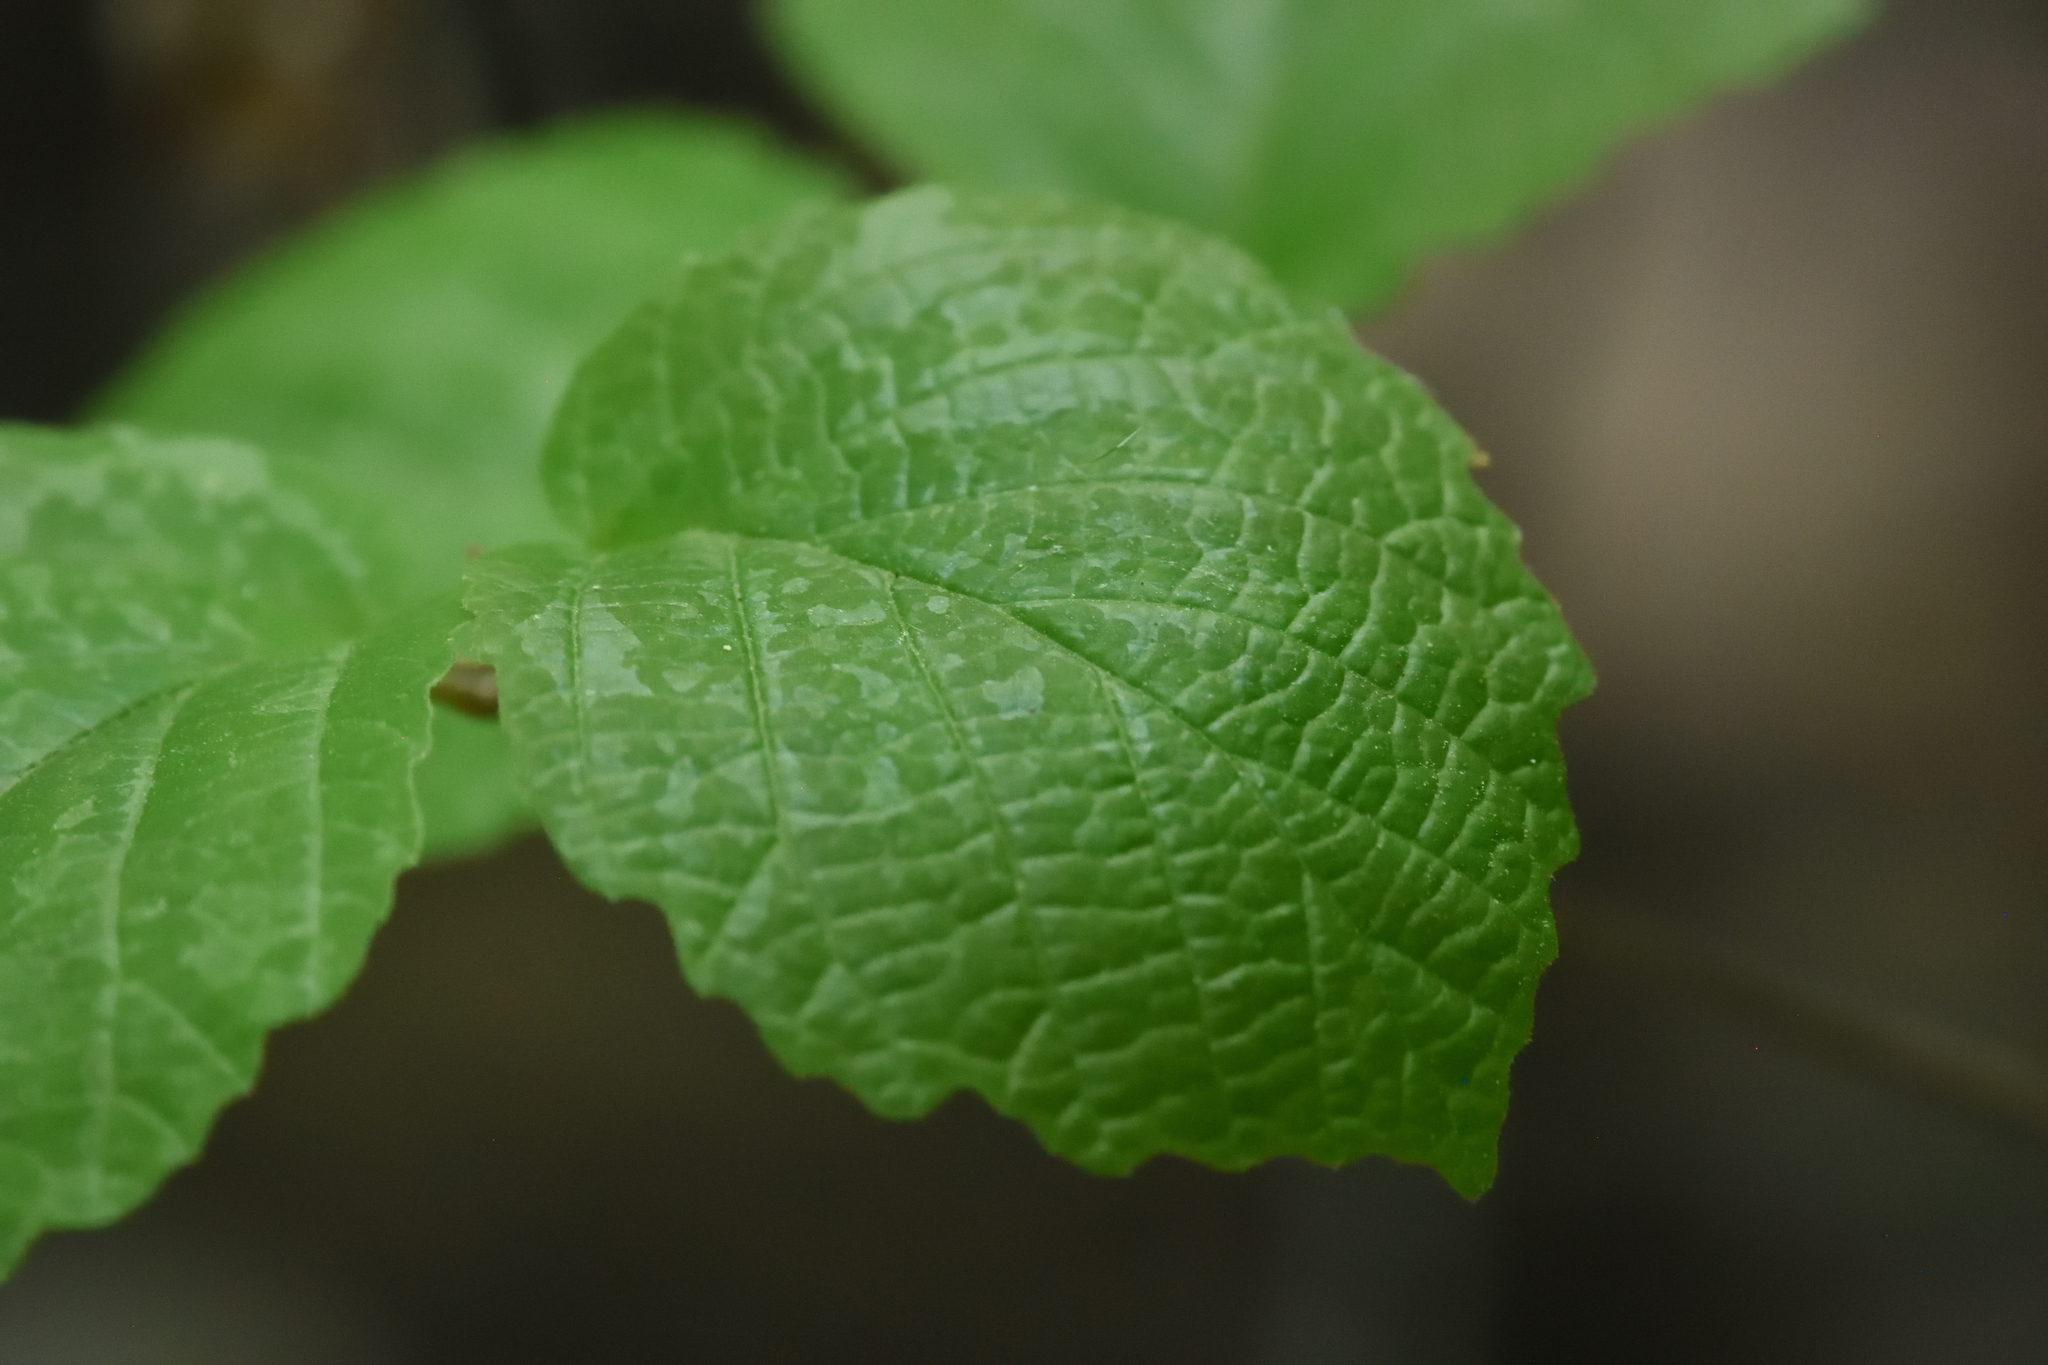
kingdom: Plantae
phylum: Tracheophyta
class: Magnoliopsida
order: Saxifragales
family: Hamamelidaceae
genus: Hamamelis
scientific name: Hamamelis virginiana
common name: Witch-hazel
